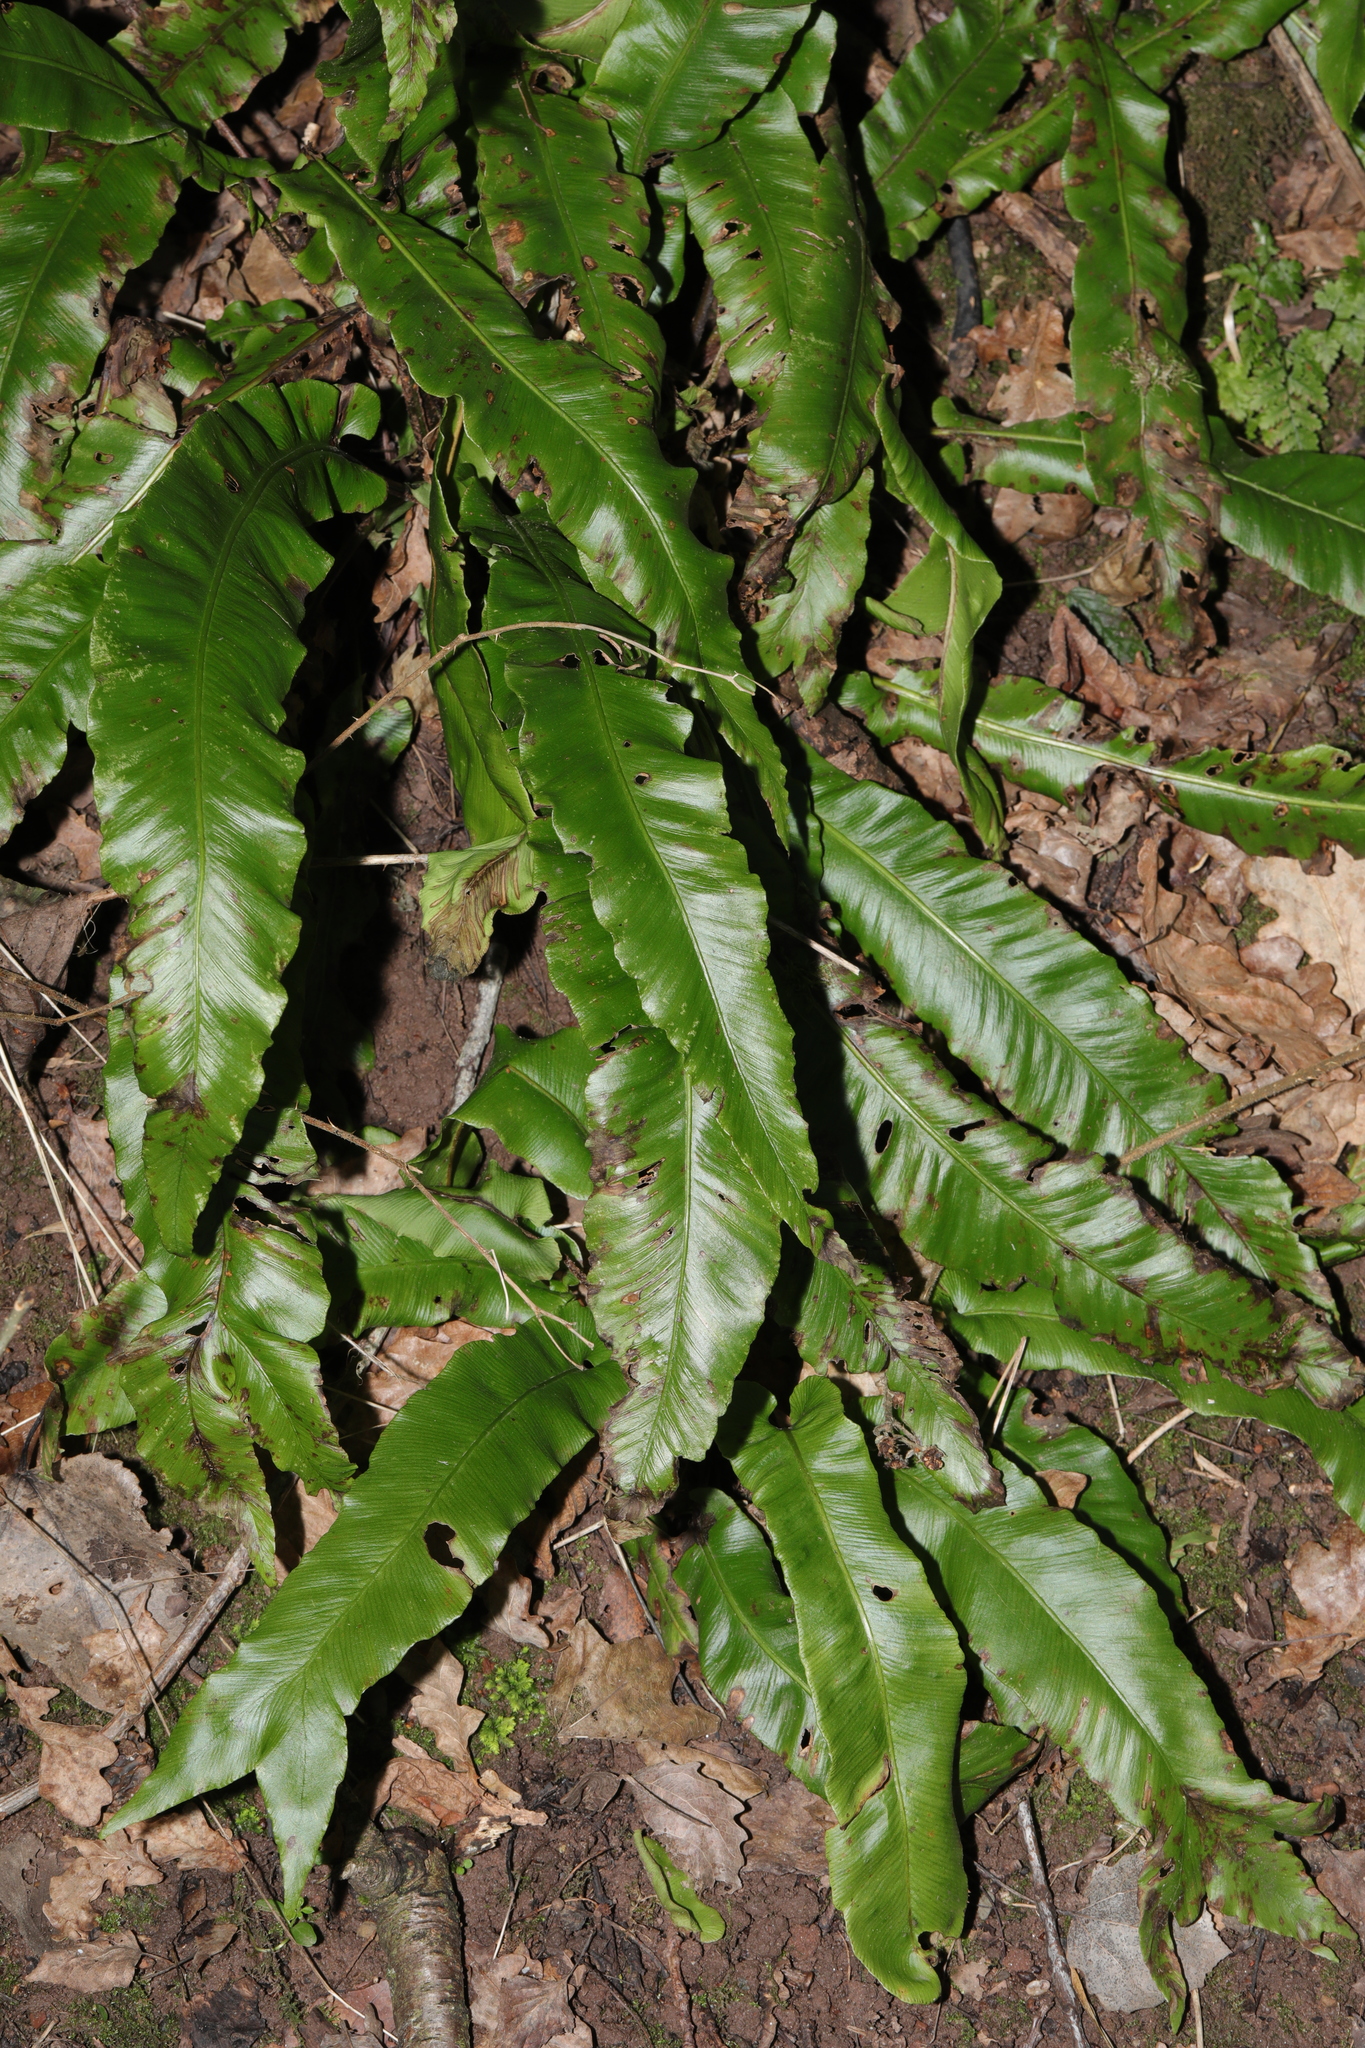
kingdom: Plantae
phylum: Tracheophyta
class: Polypodiopsida
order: Polypodiales
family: Aspleniaceae
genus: Asplenium
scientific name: Asplenium scolopendrium
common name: Hart's-tongue fern
